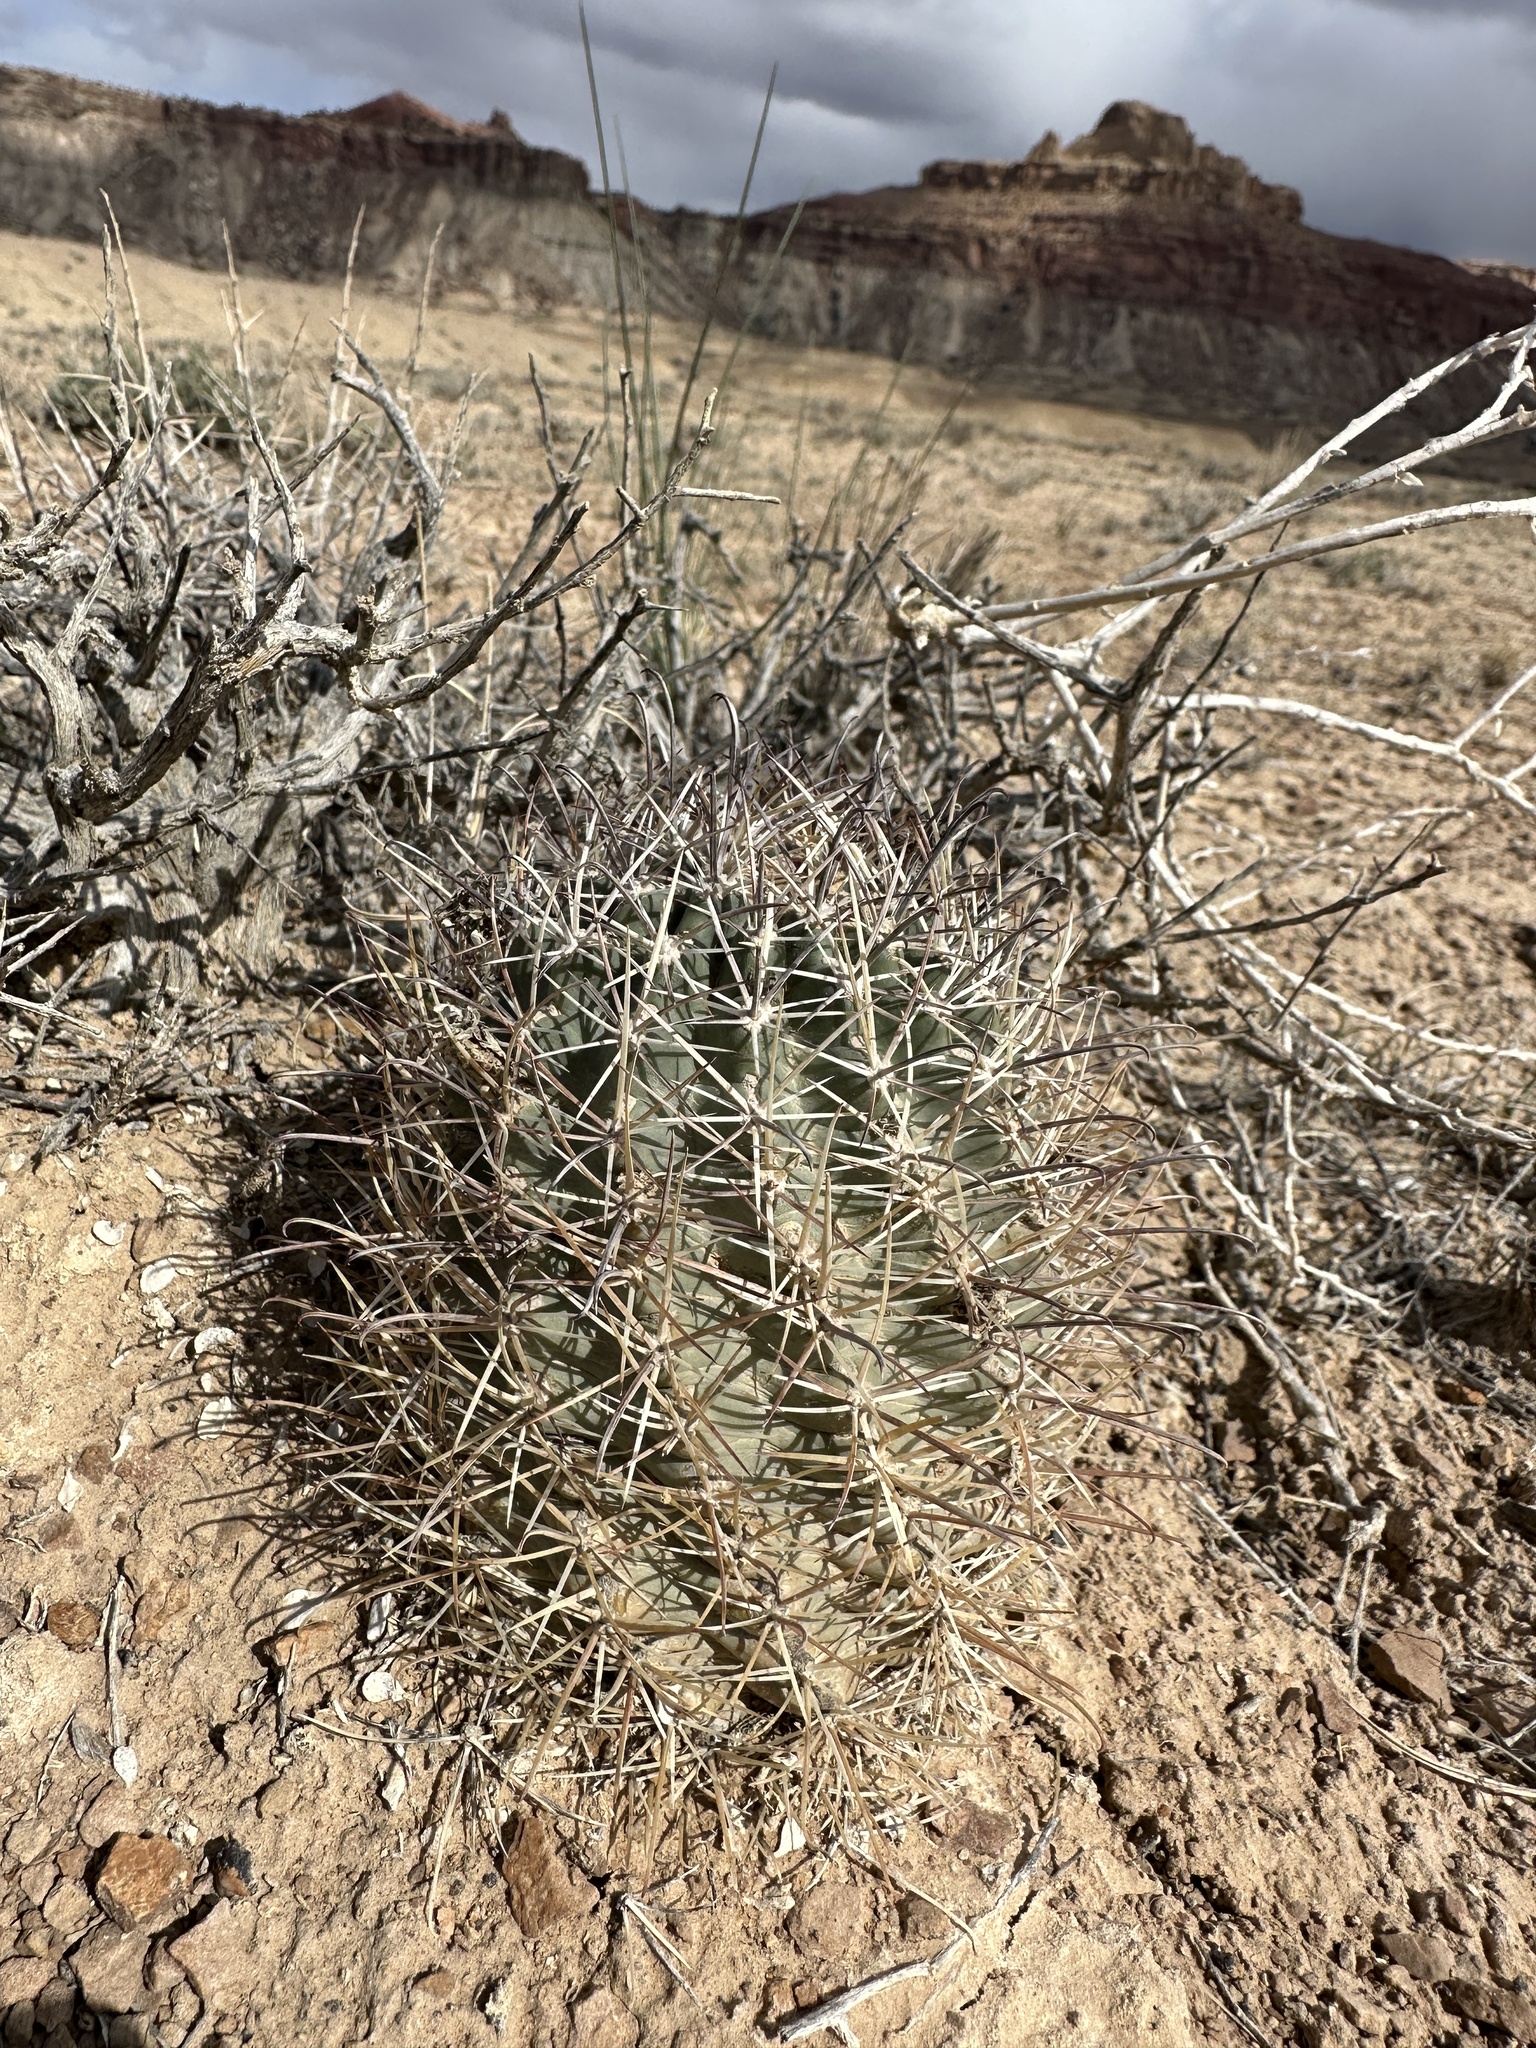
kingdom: Plantae
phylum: Tracheophyta
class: Magnoliopsida
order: Caryophyllales
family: Cactaceae
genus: Sclerocactus
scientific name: Sclerocactus parviflorus
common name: Small-flower fishhook cactus
